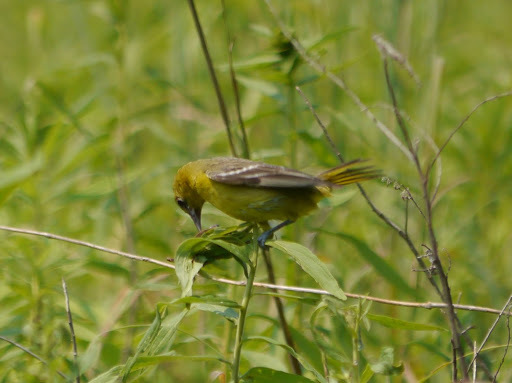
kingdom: Animalia
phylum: Chordata
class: Aves
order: Passeriformes
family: Icteridae
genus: Icterus
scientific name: Icterus spurius
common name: Orchard oriole
